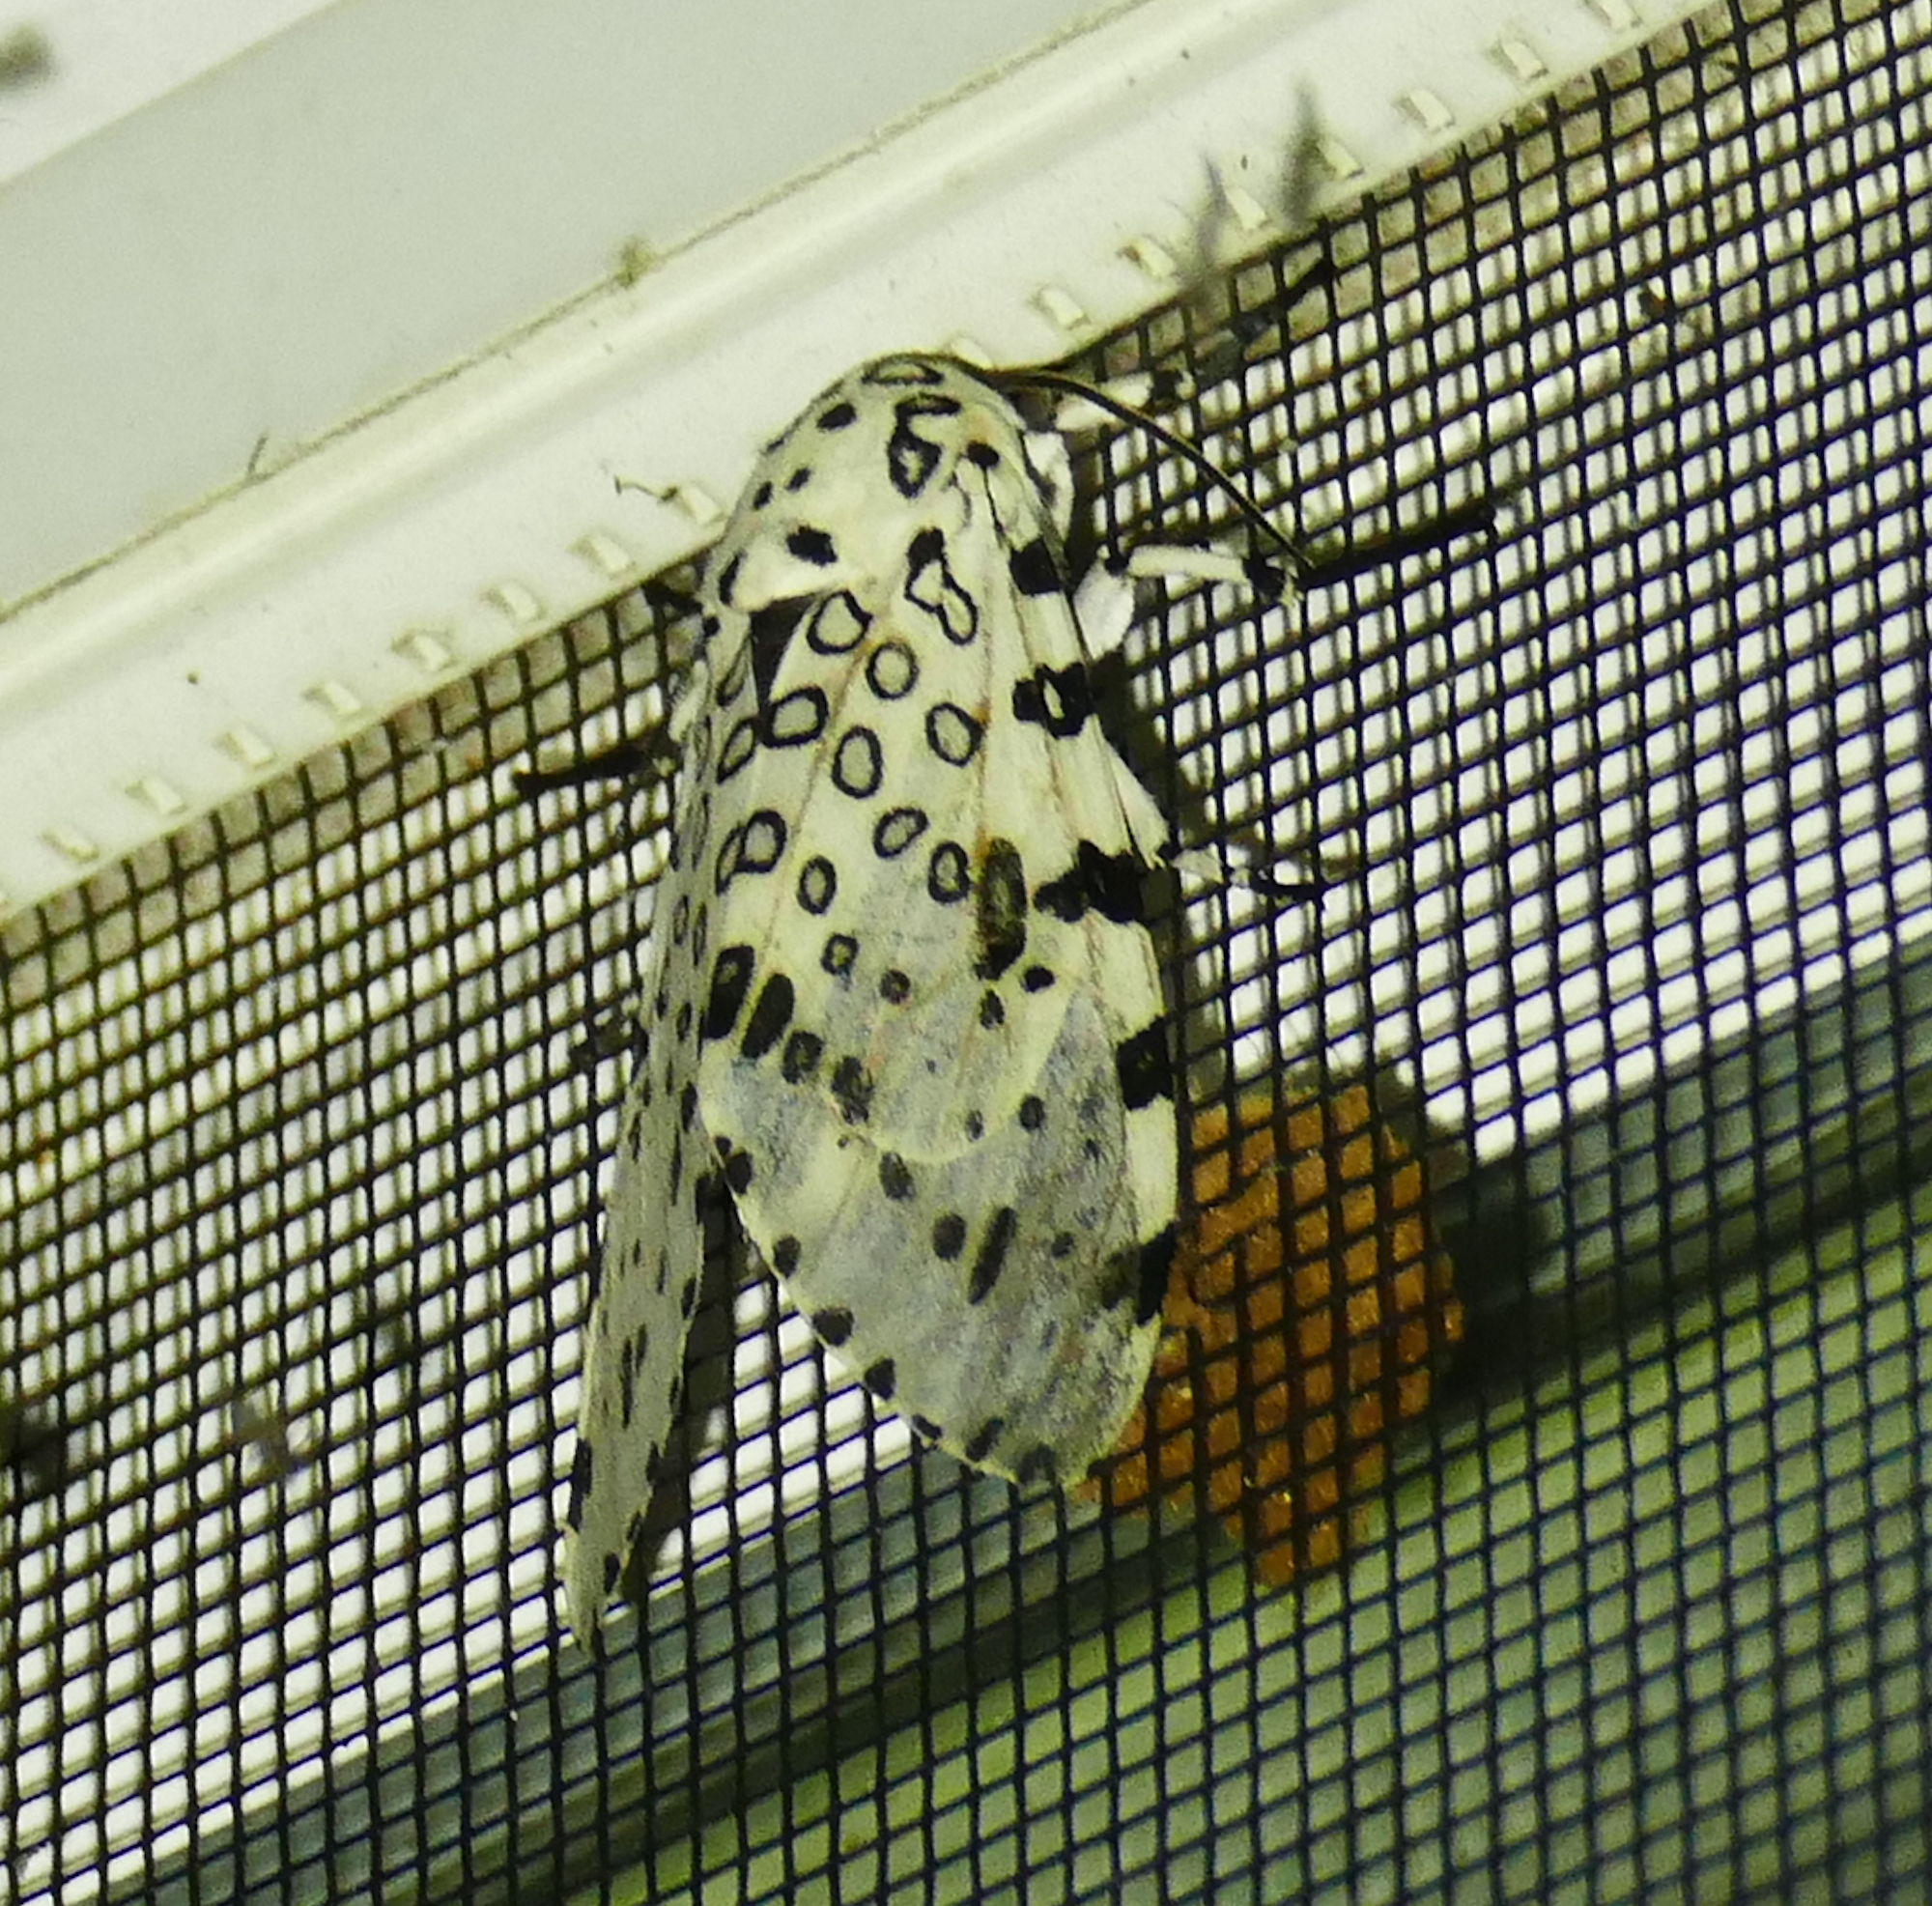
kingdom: Animalia
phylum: Arthropoda
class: Insecta
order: Lepidoptera
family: Erebidae
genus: Hypercompe
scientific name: Hypercompe scribonia
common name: Giant leopard moth
